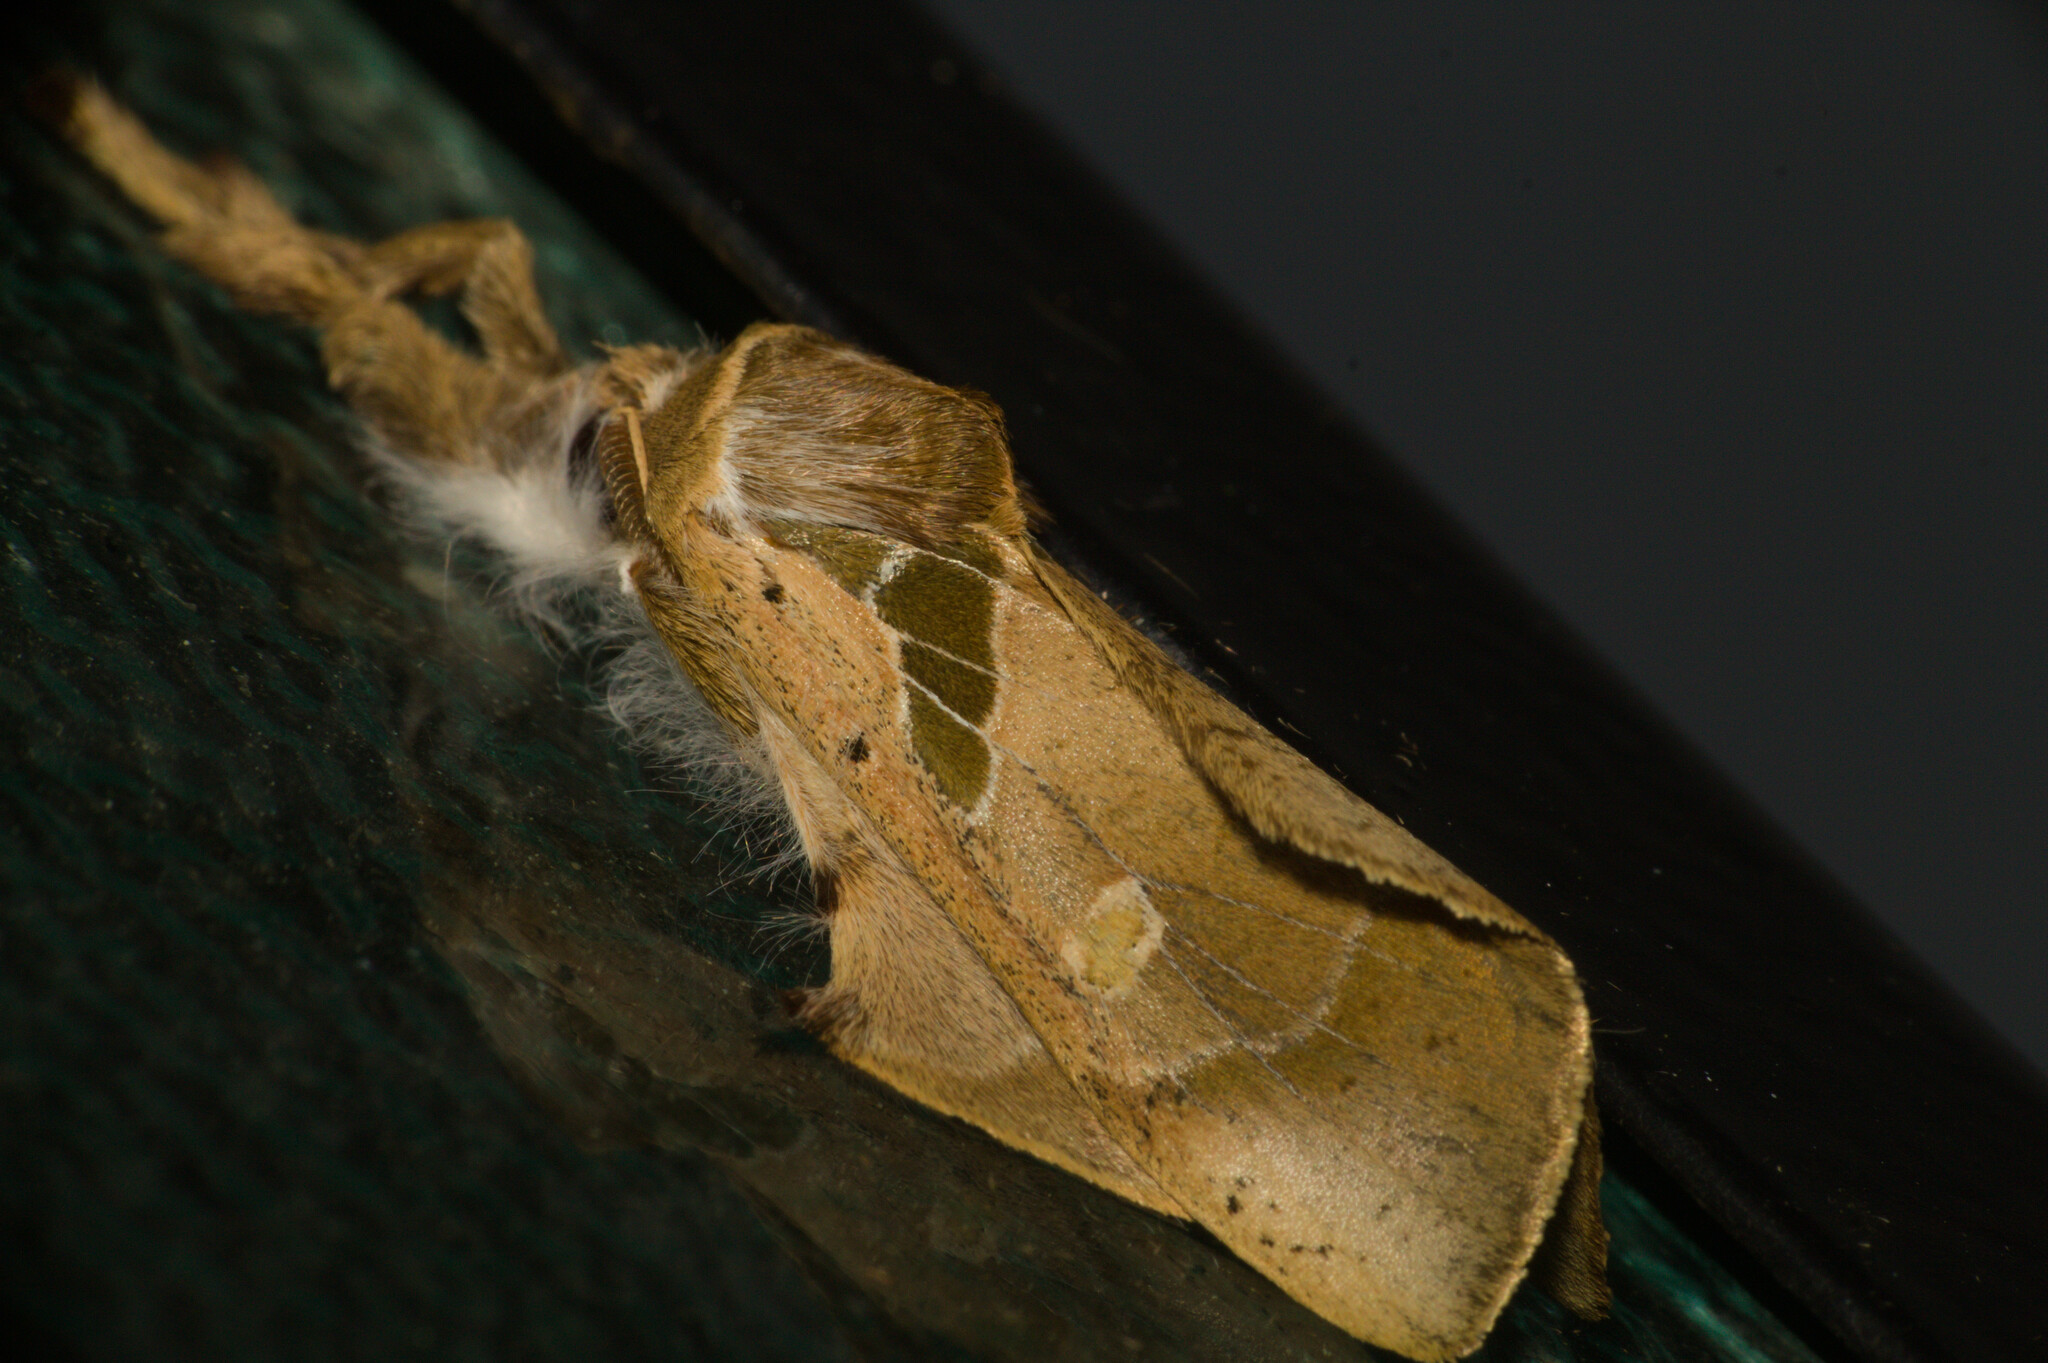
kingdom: Animalia
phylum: Arthropoda
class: Insecta
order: Lepidoptera
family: Erebidae
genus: Desmoloma
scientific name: Desmoloma mollis
